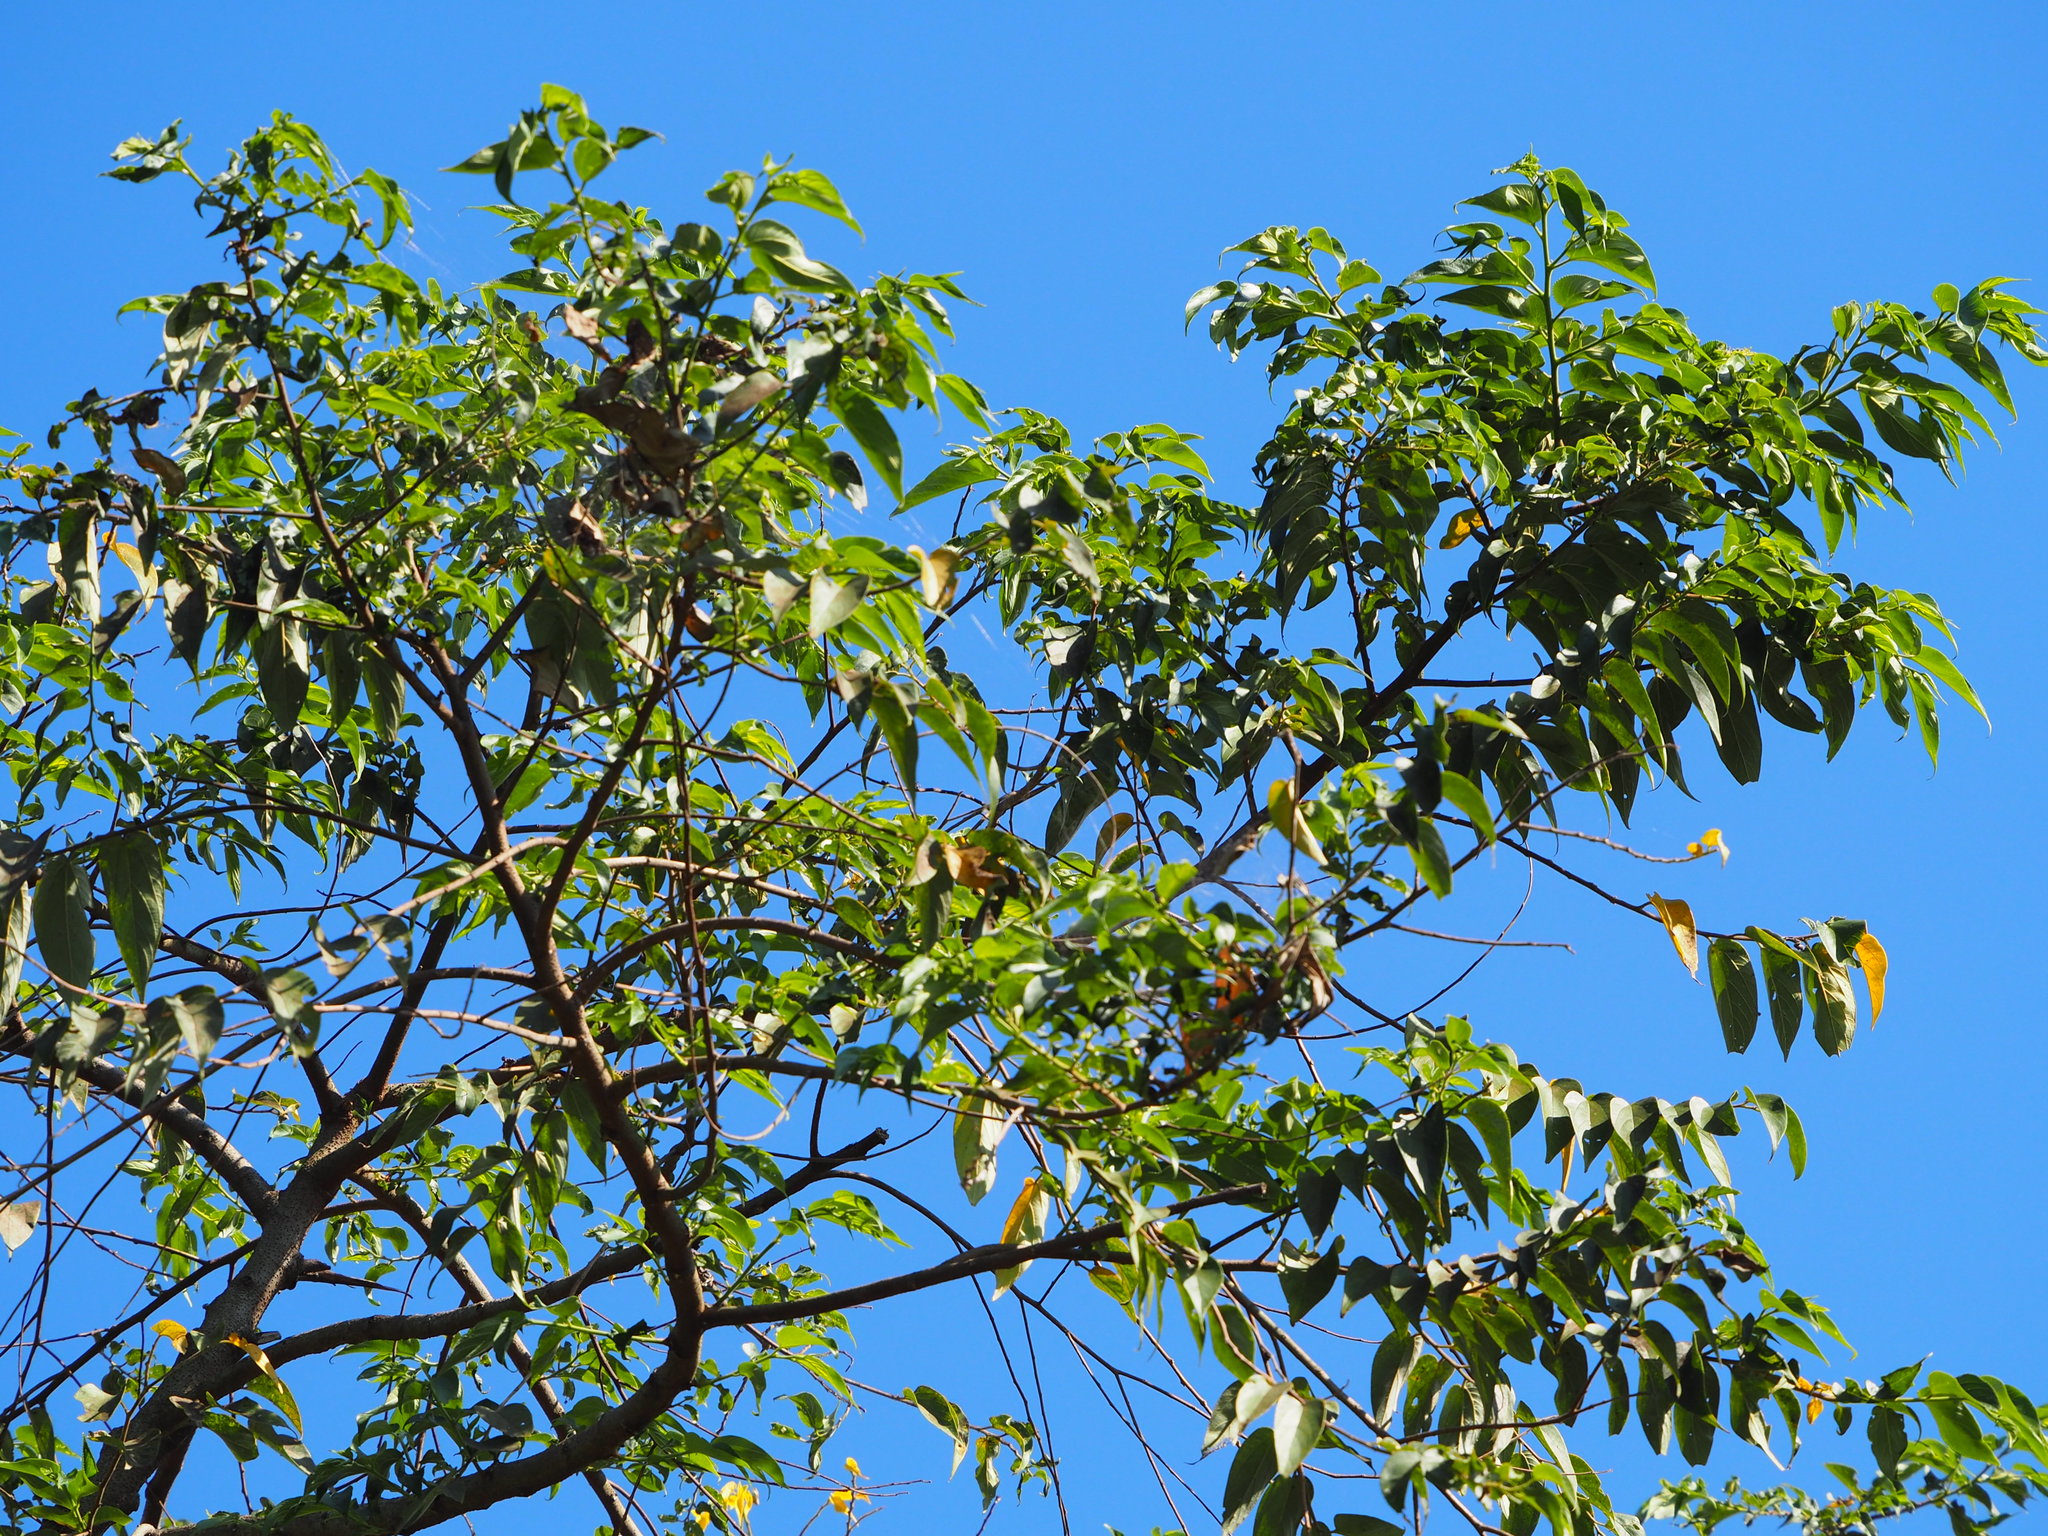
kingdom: Plantae
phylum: Tracheophyta
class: Magnoliopsida
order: Rosales
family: Cannabaceae
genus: Trema
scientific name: Trema orientale
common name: Indian charcoal tree
